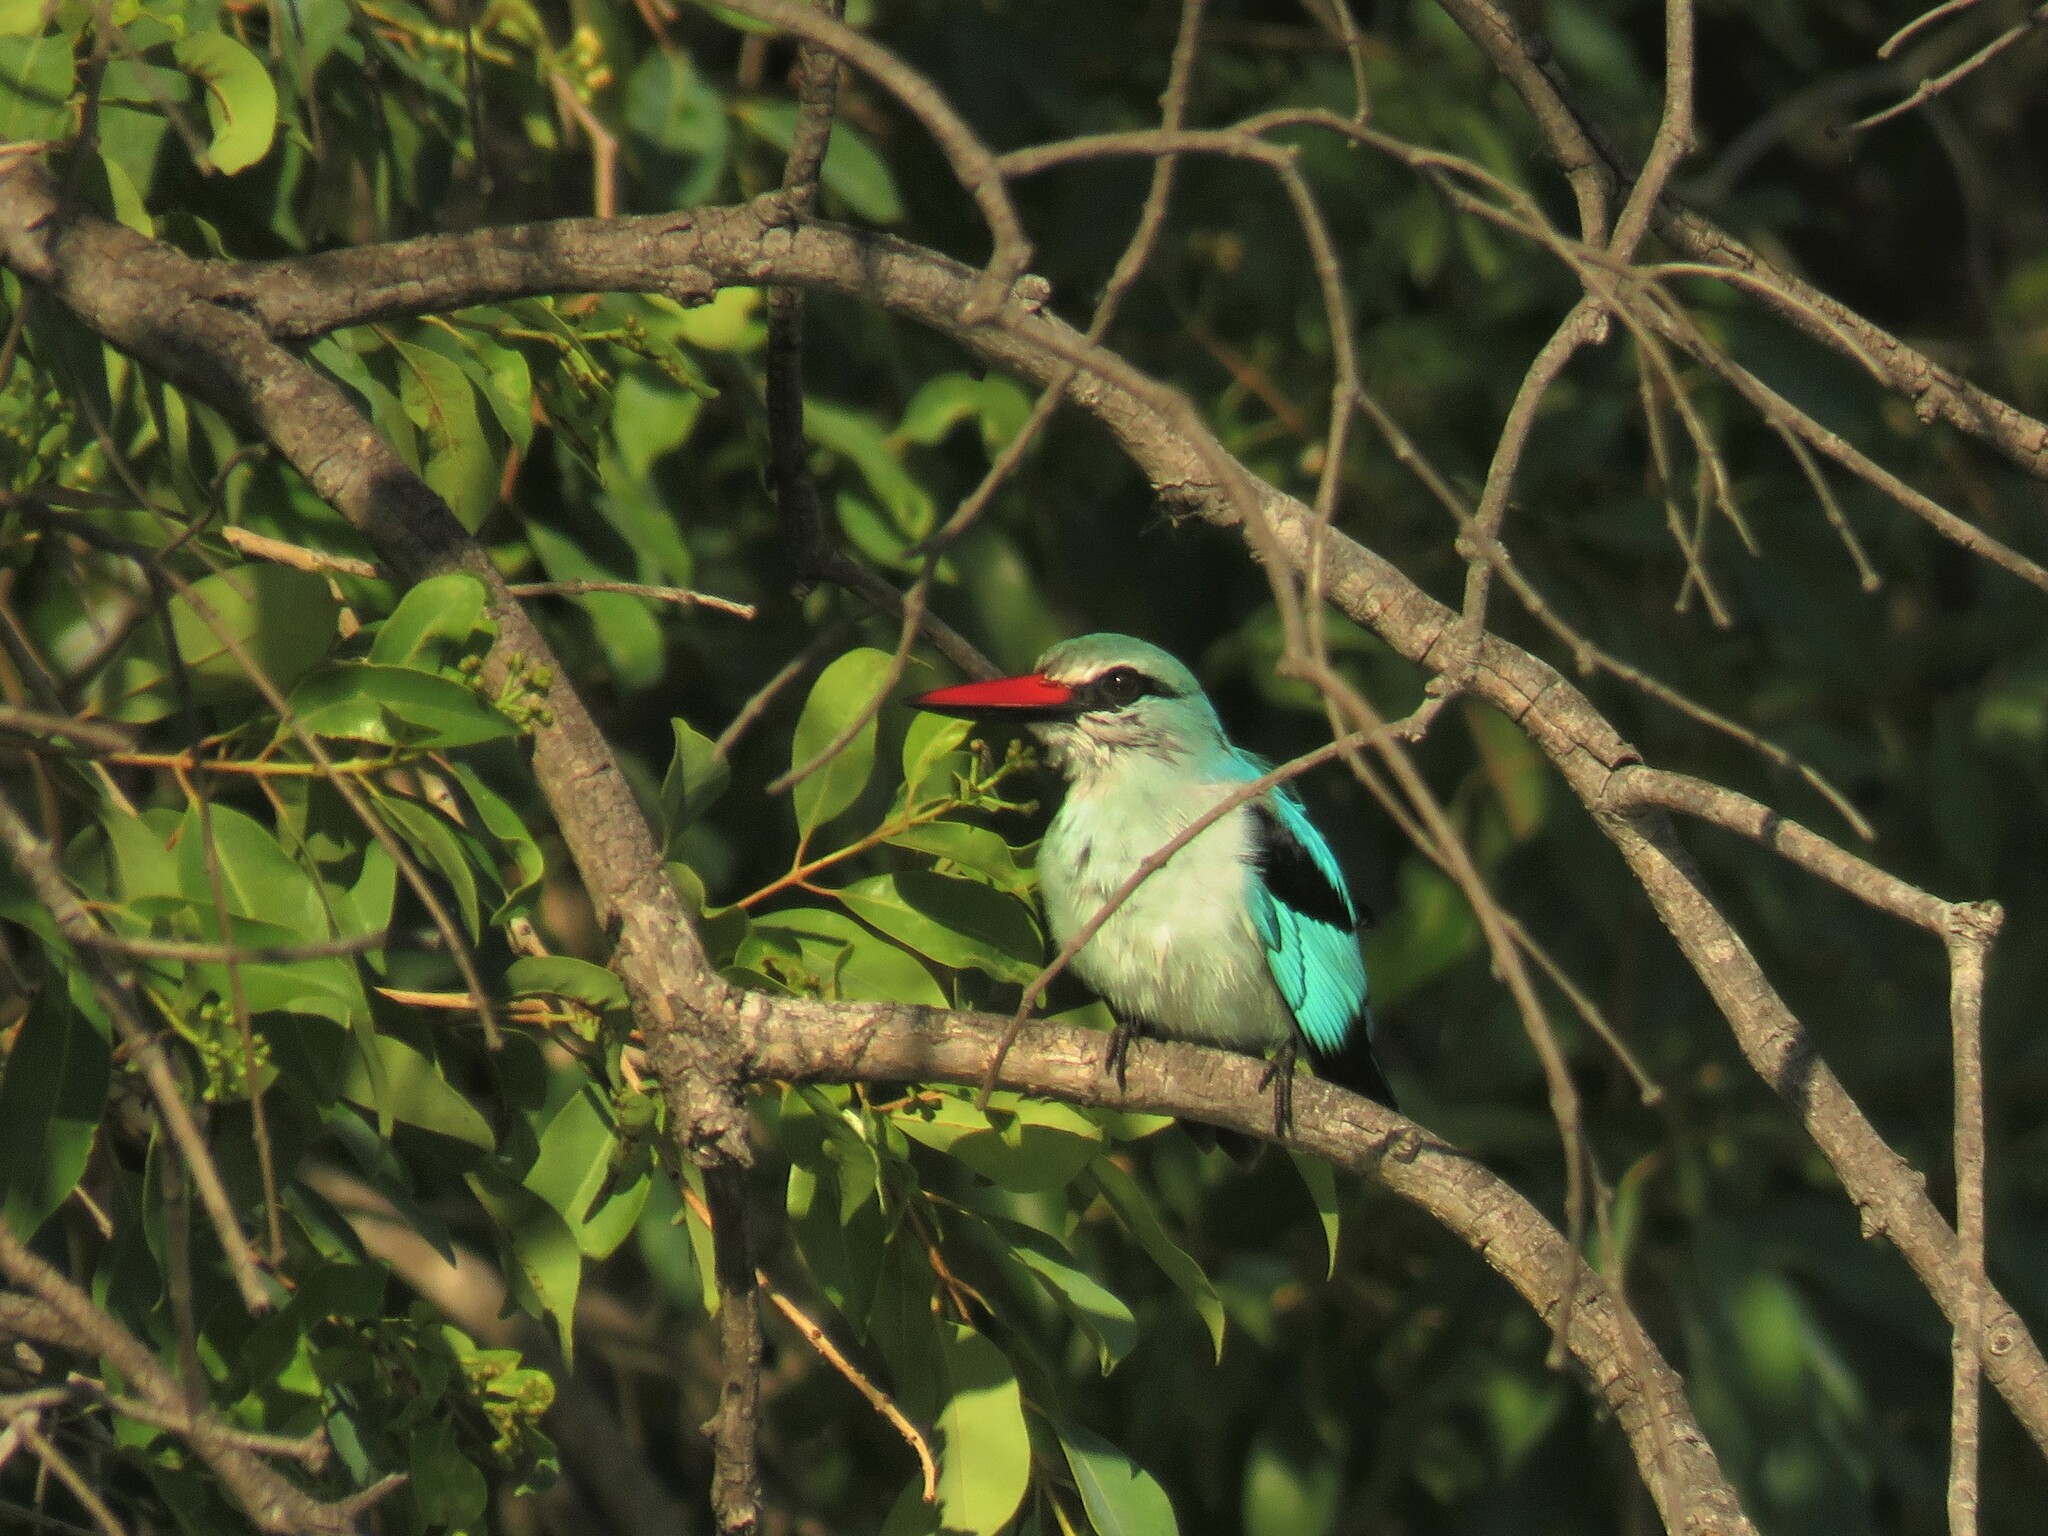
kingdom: Animalia
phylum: Chordata
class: Aves
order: Coraciiformes
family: Alcedinidae
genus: Halcyon
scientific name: Halcyon senegalensis
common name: Woodland kingfisher
